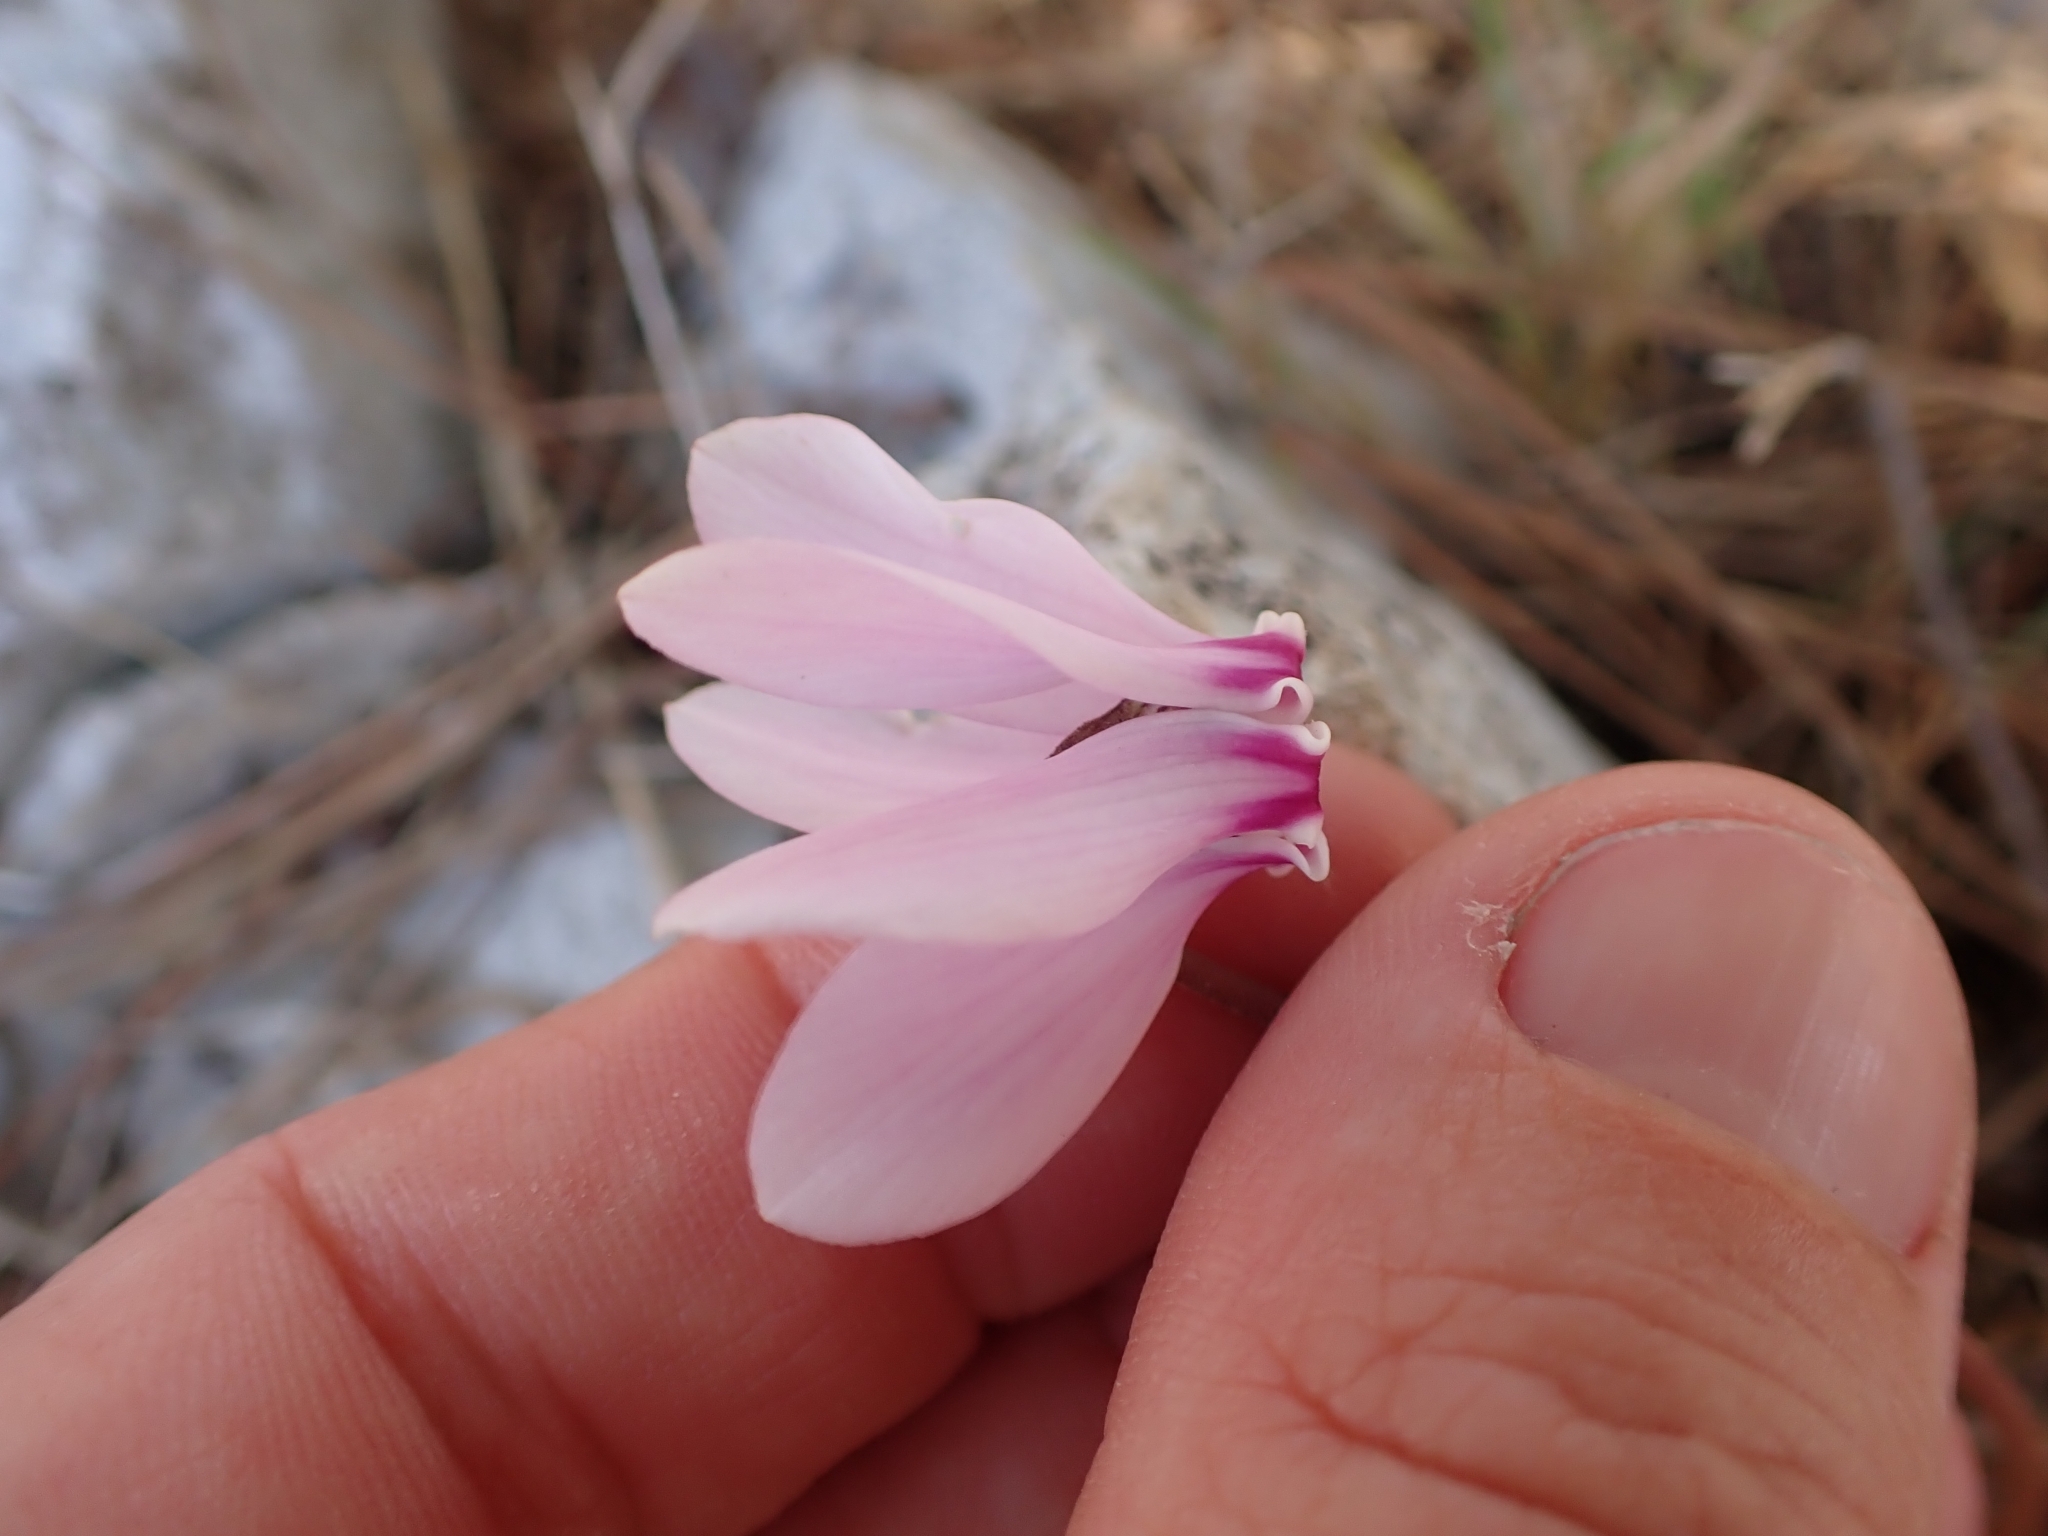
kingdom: Plantae
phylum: Tracheophyta
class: Magnoliopsida
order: Ericales
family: Primulaceae
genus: Cyclamen
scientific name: Cyclamen hederifolium
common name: Sowbread
